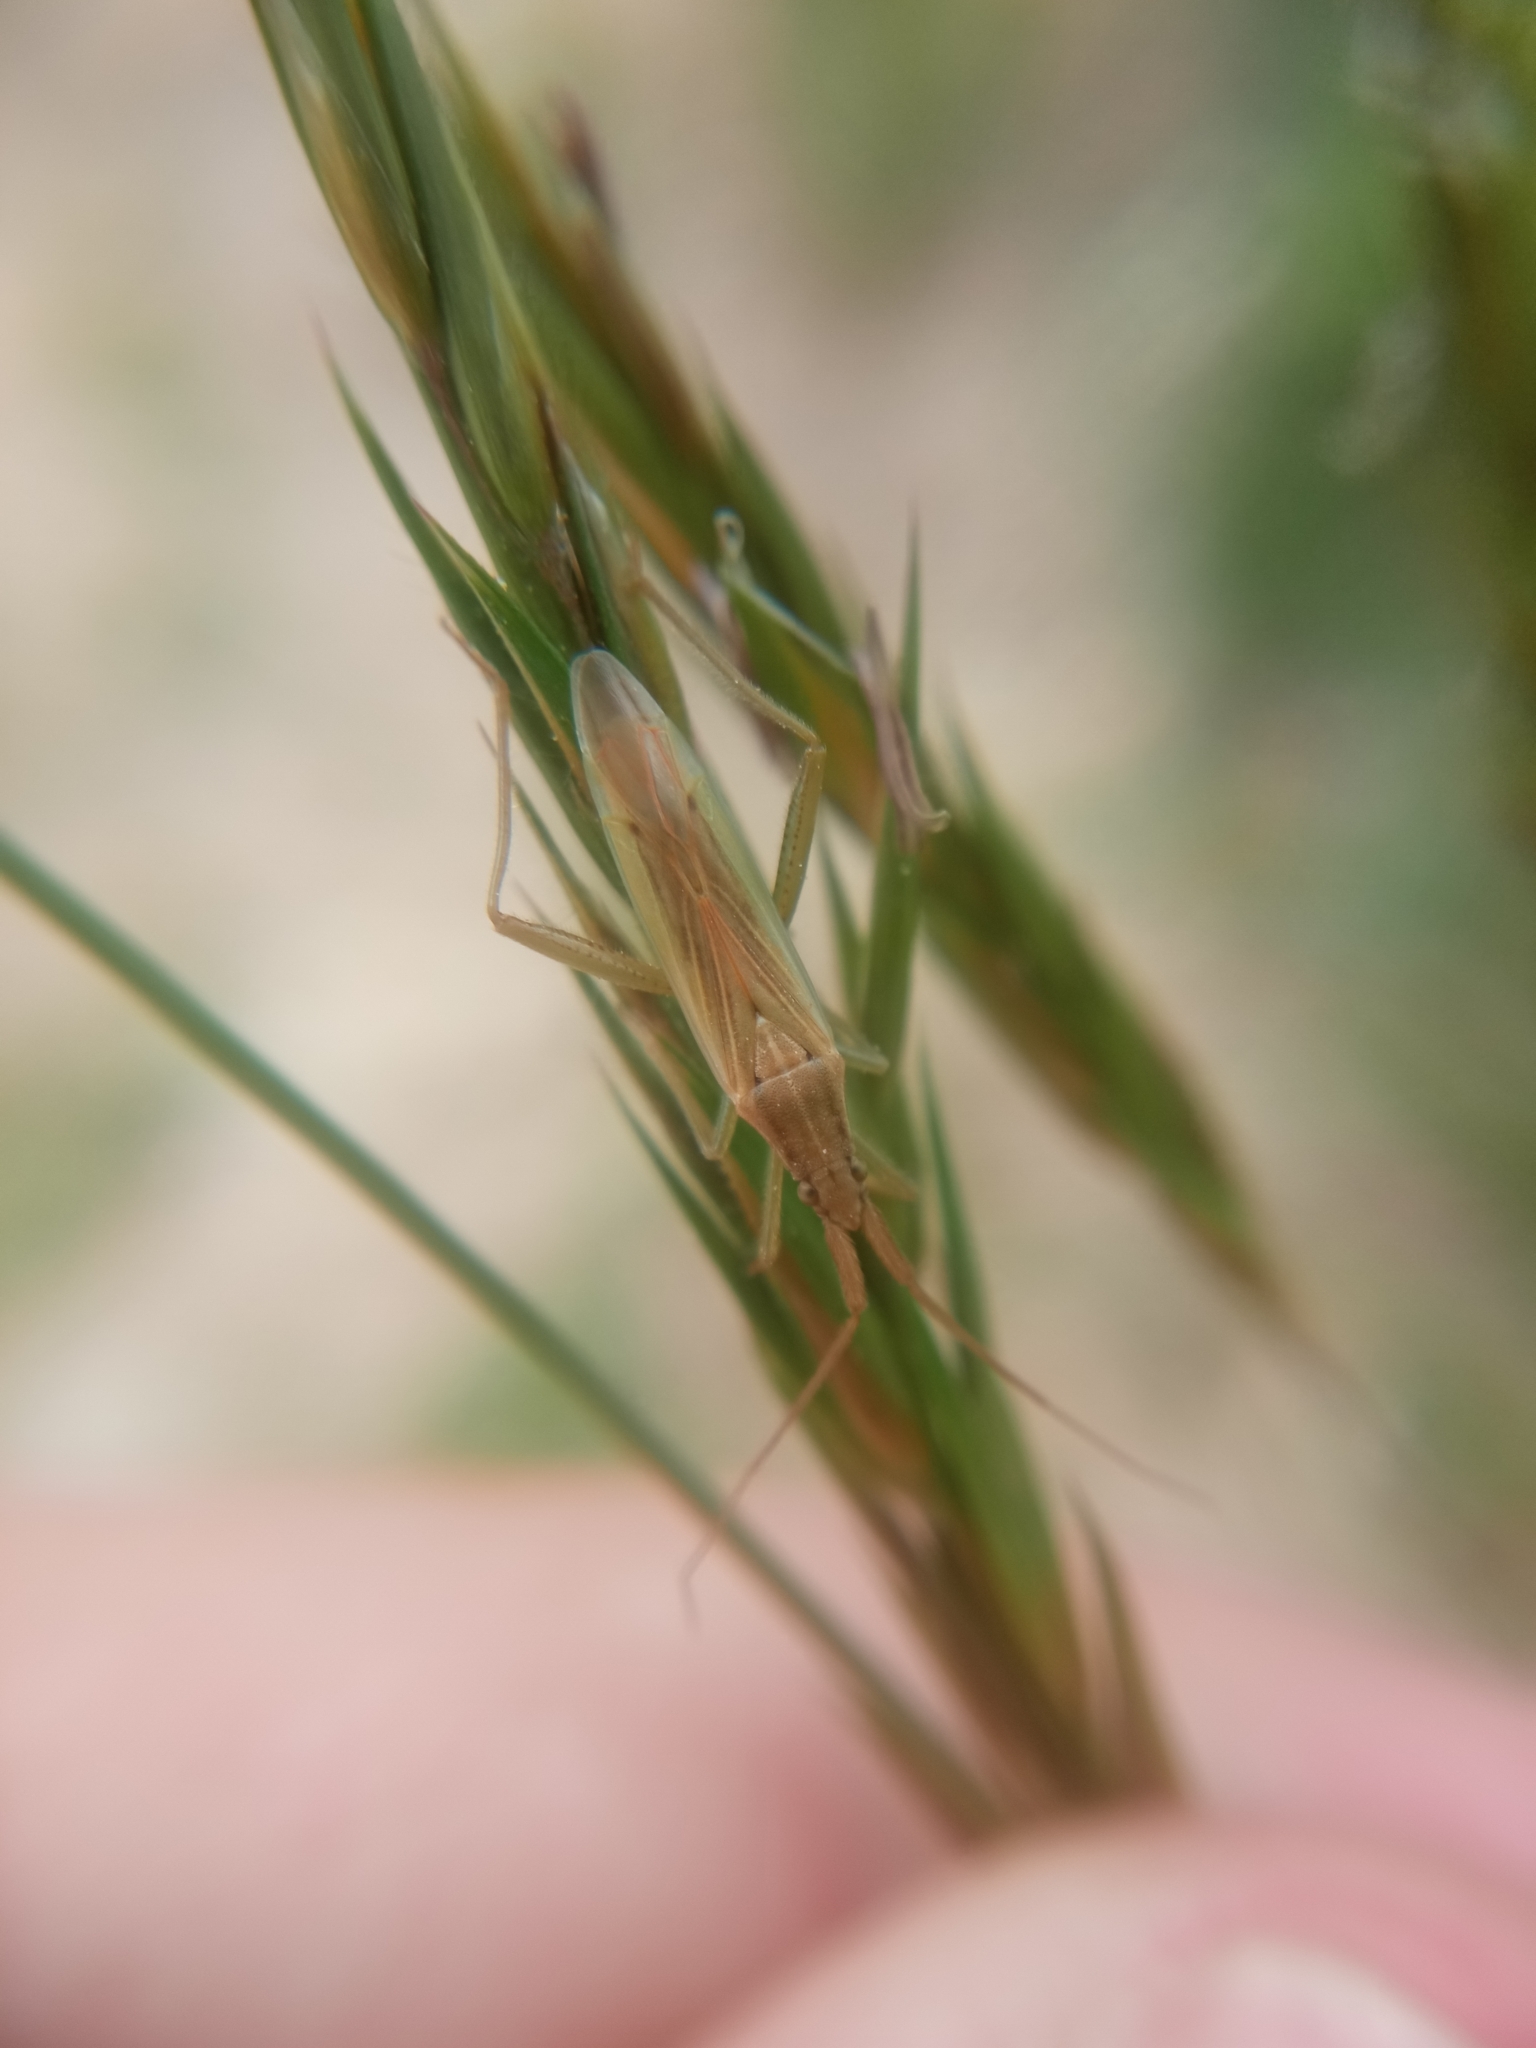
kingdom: Animalia
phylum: Arthropoda
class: Insecta
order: Hemiptera
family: Miridae
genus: Stenodema
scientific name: Stenodema laevigata
